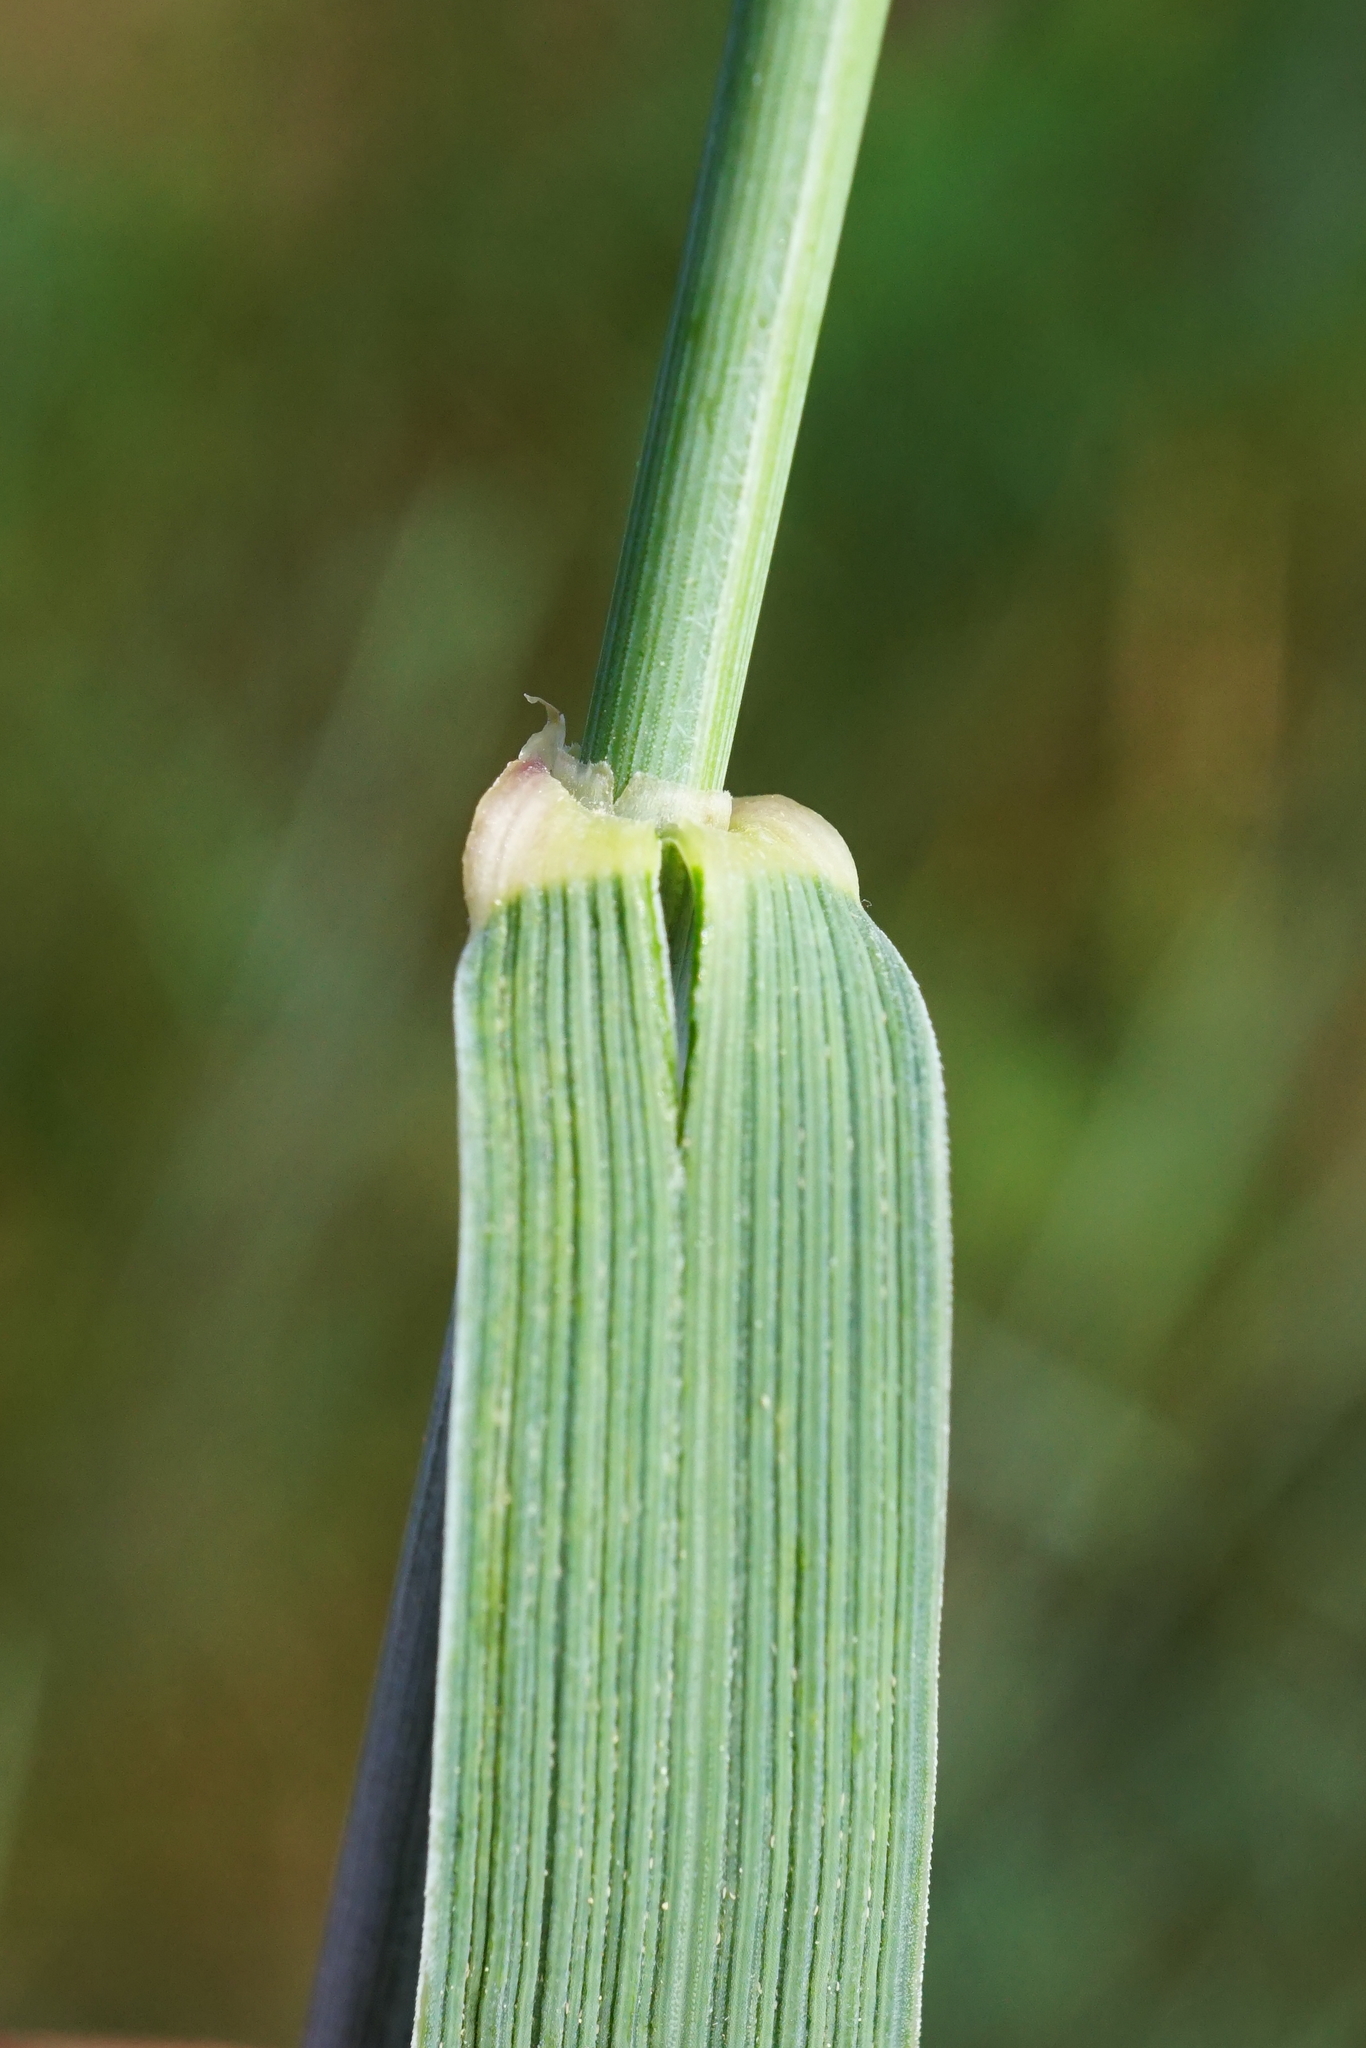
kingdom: Plantae
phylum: Tracheophyta
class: Liliopsida
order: Poales
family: Poaceae
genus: Thinopyrum
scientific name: Thinopyrum intermedium
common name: Intermediate wheatgrass
